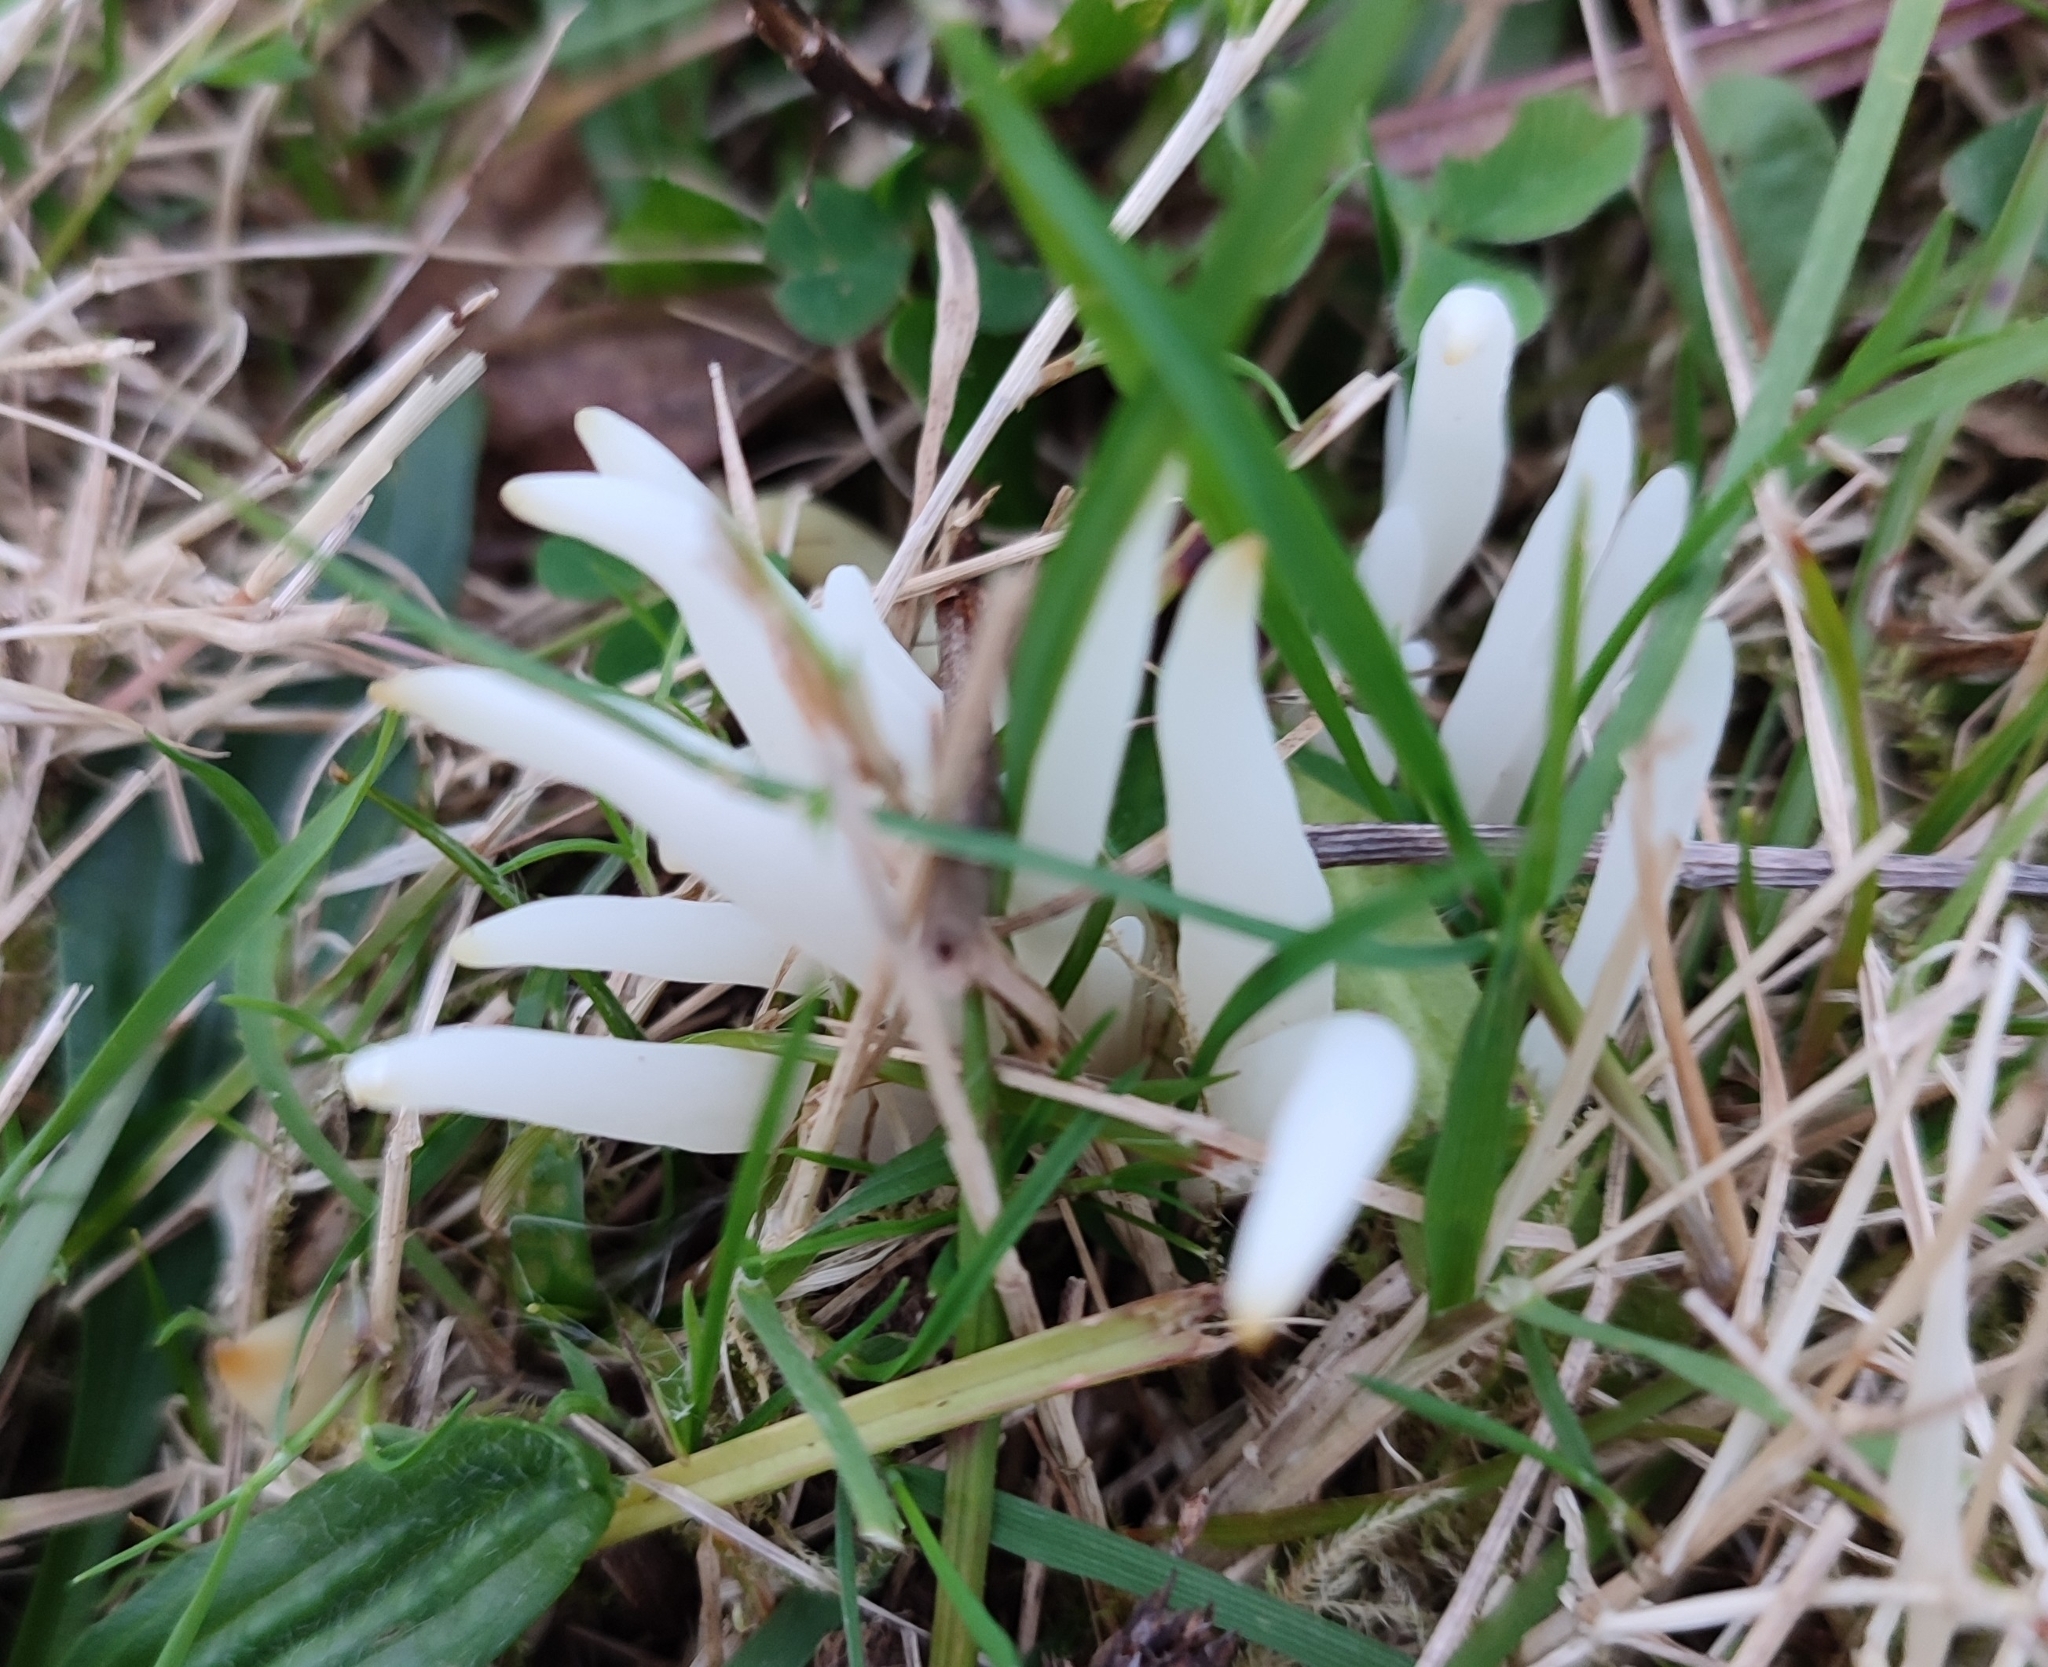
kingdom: Fungi
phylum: Basidiomycota
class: Agaricomycetes
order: Agaricales
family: Clavariaceae
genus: Clavaria
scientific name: Clavaria fragilis
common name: White spindles
